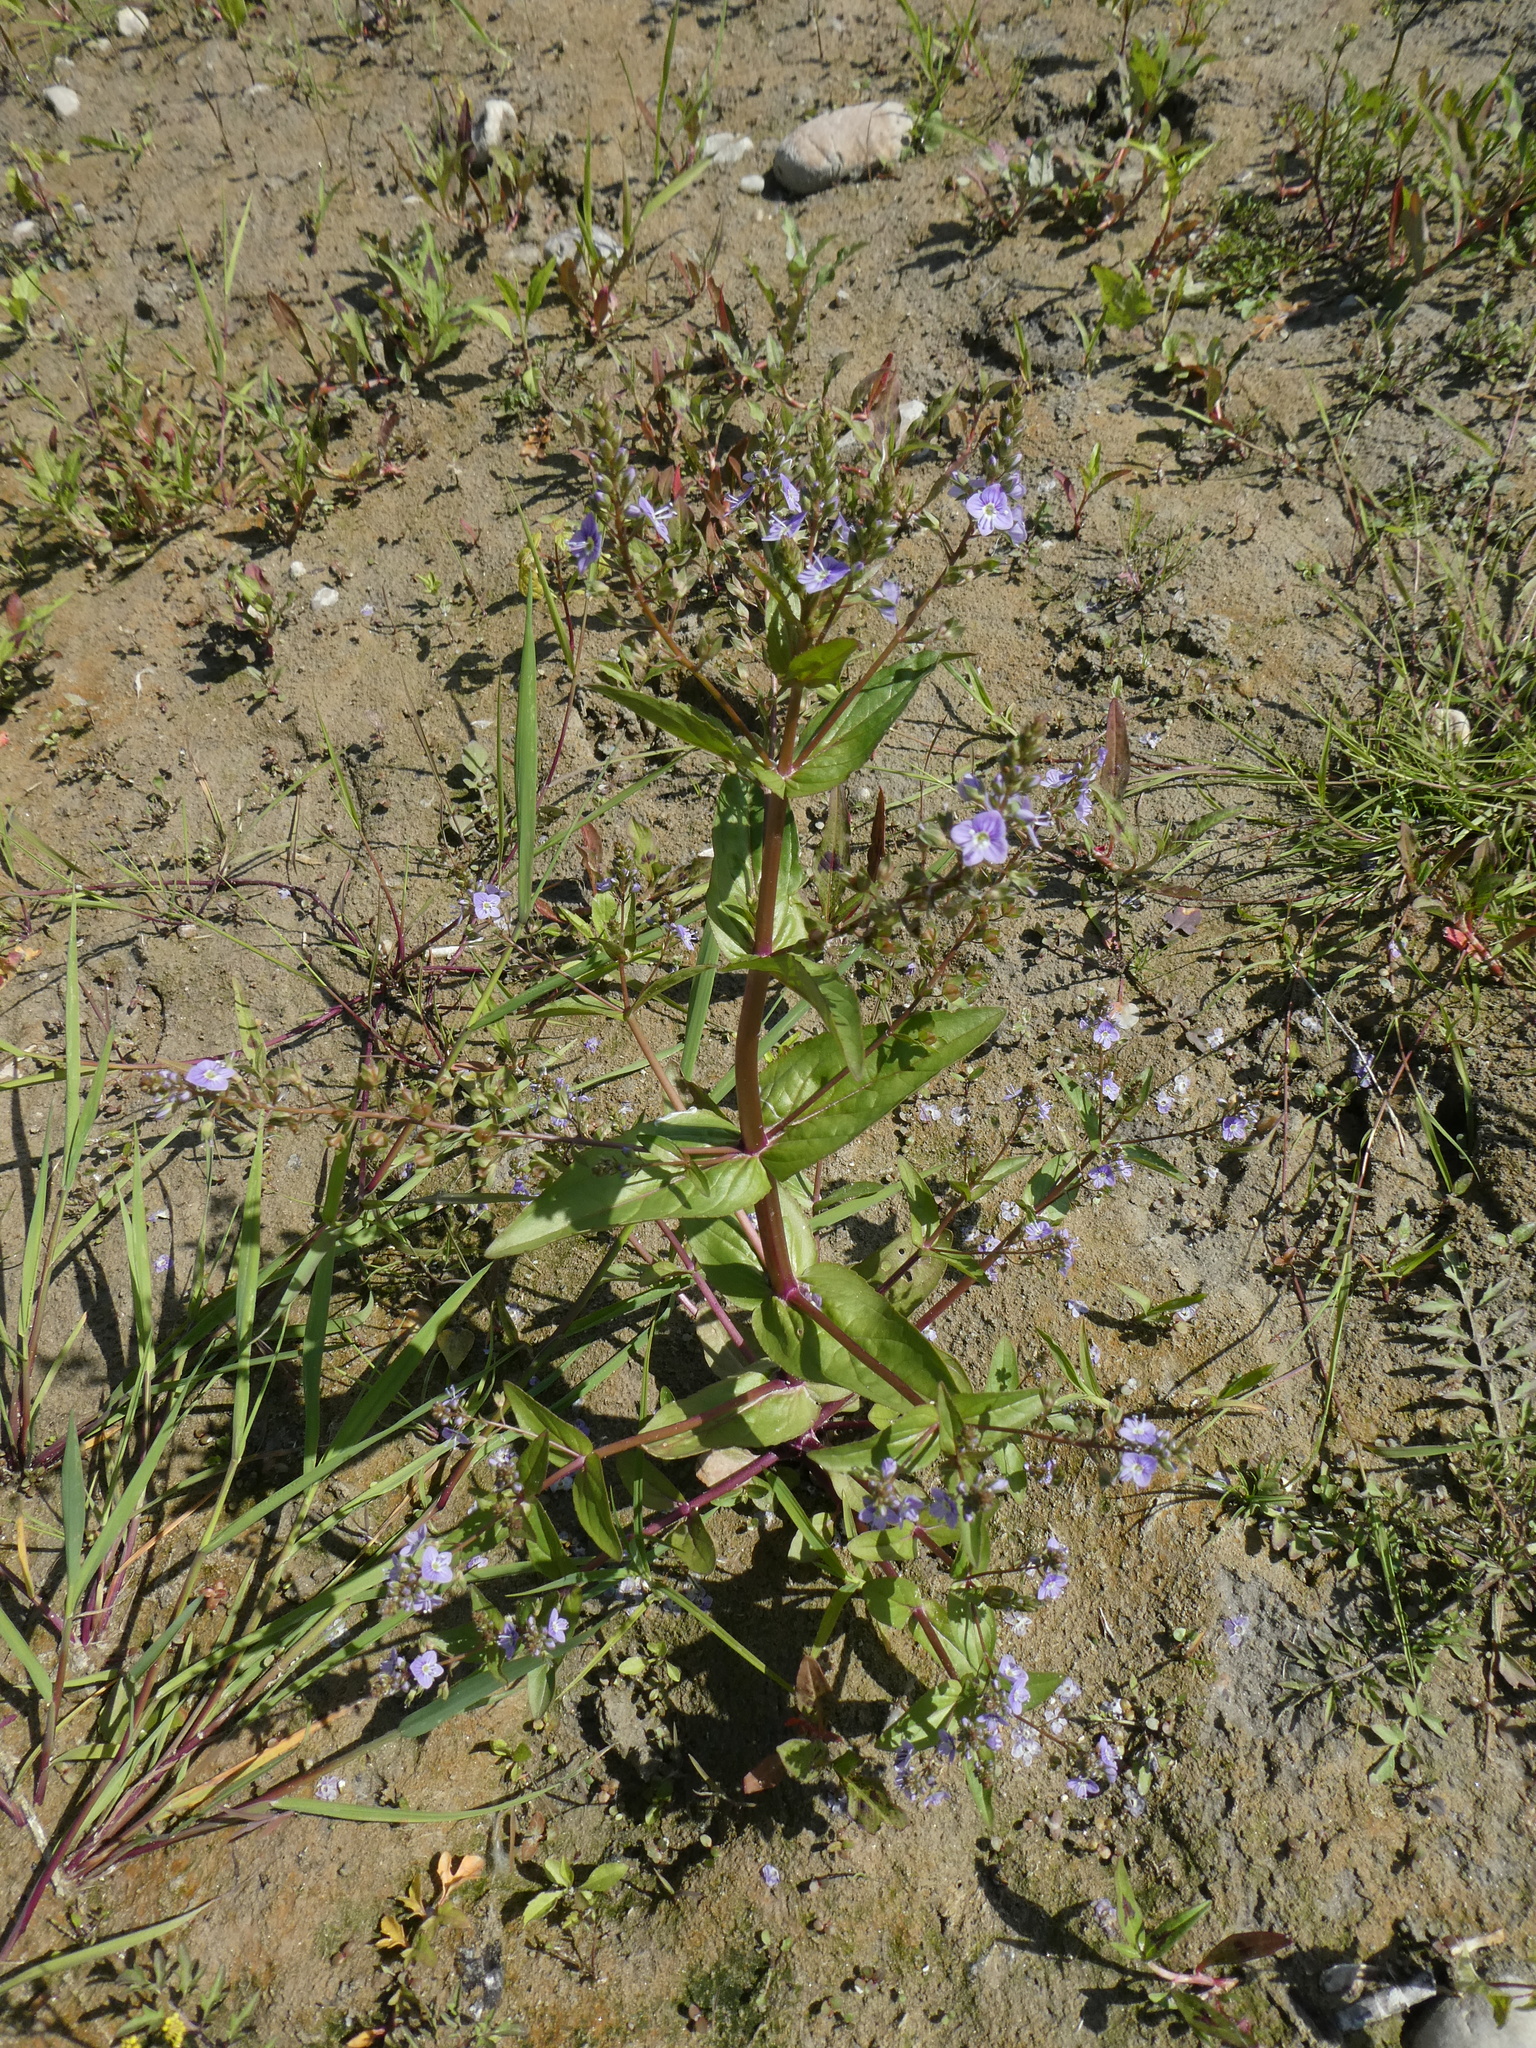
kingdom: Plantae
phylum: Tracheophyta
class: Magnoliopsida
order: Lamiales
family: Plantaginaceae
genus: Veronica
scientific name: Veronica anagallis-aquatica
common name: Water speedwell
